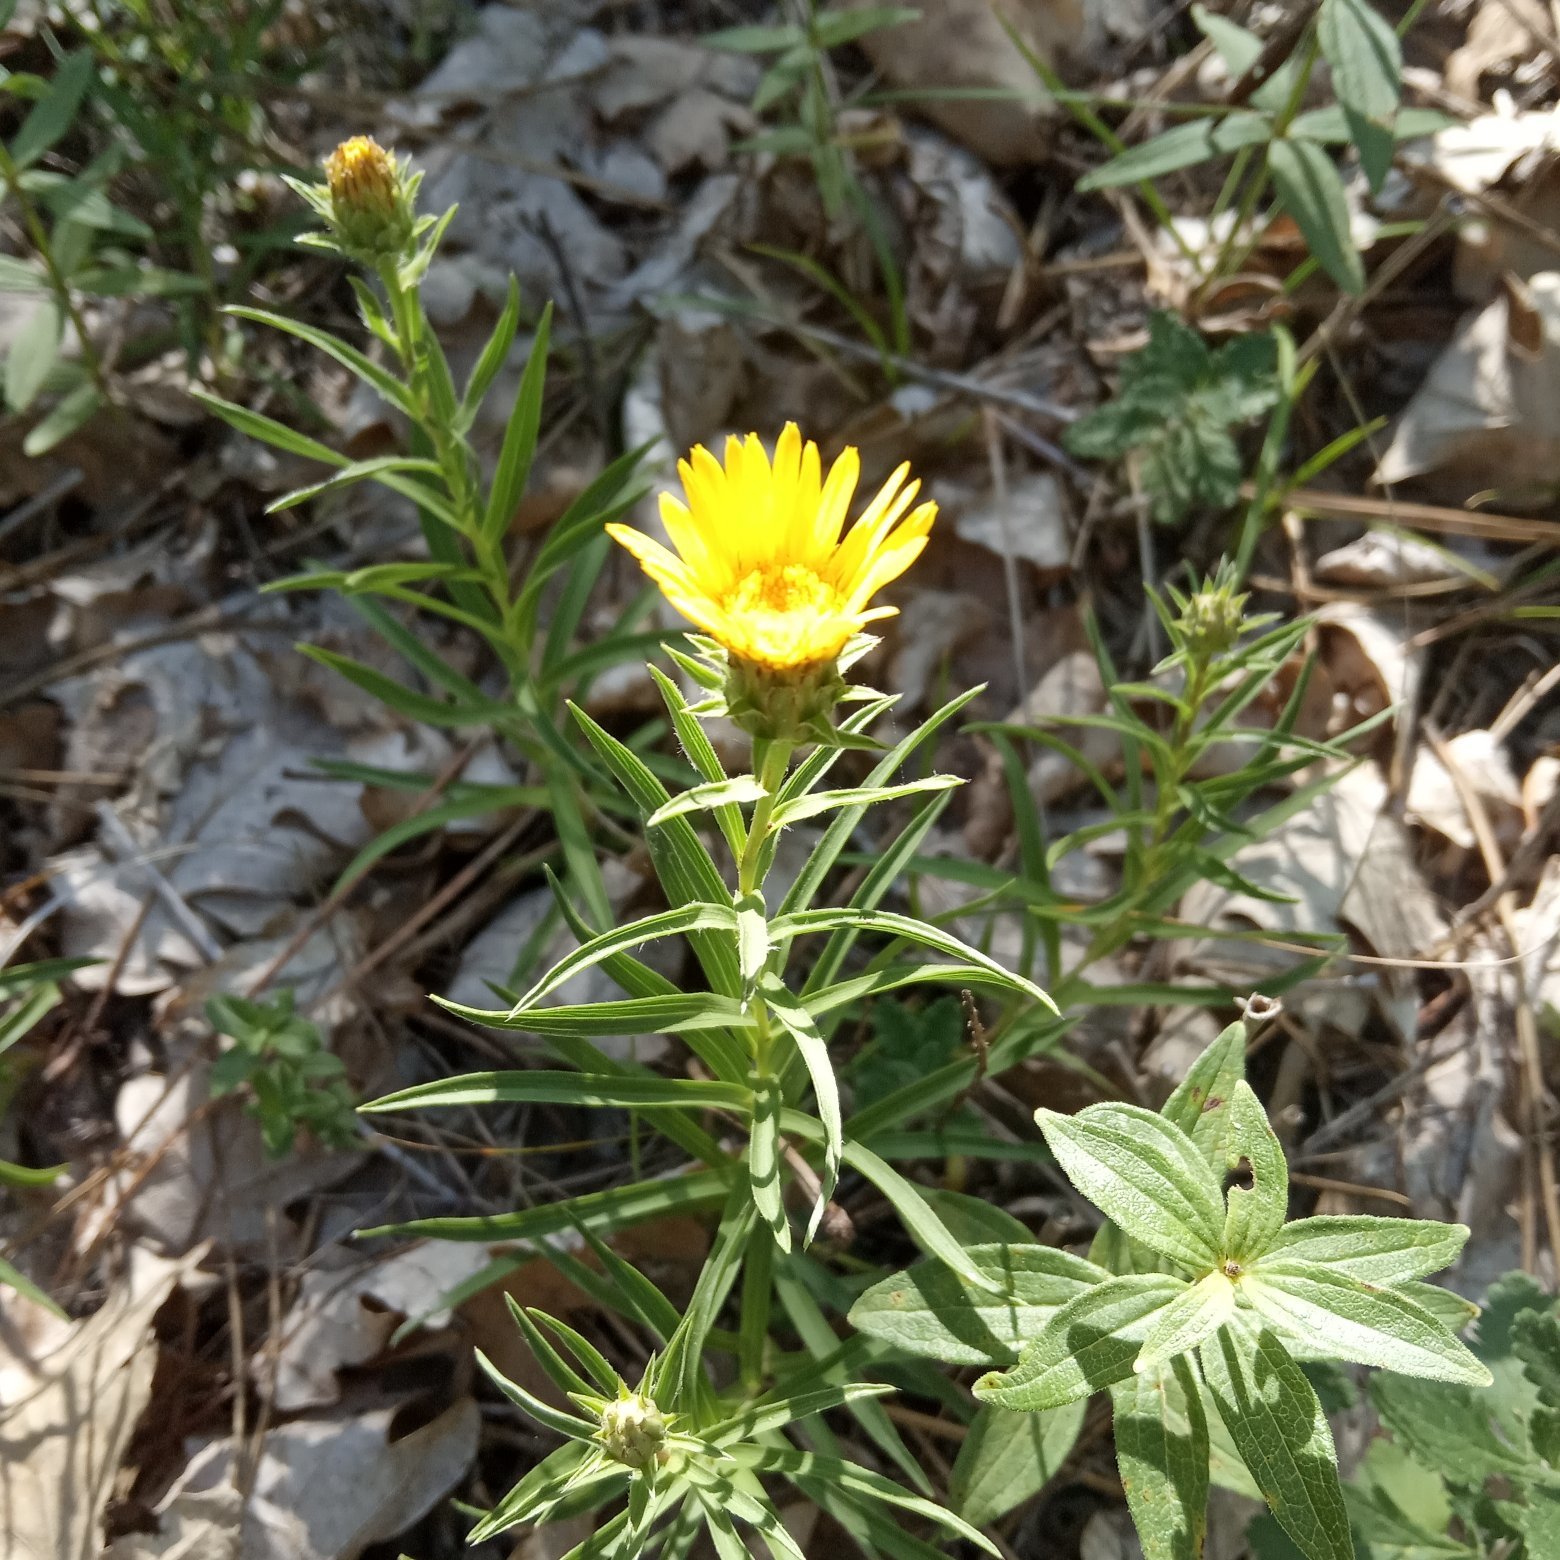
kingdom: Plantae
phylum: Tracheophyta
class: Magnoliopsida
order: Asterales
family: Asteraceae
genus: Pentanema
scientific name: Pentanema ensifolium
